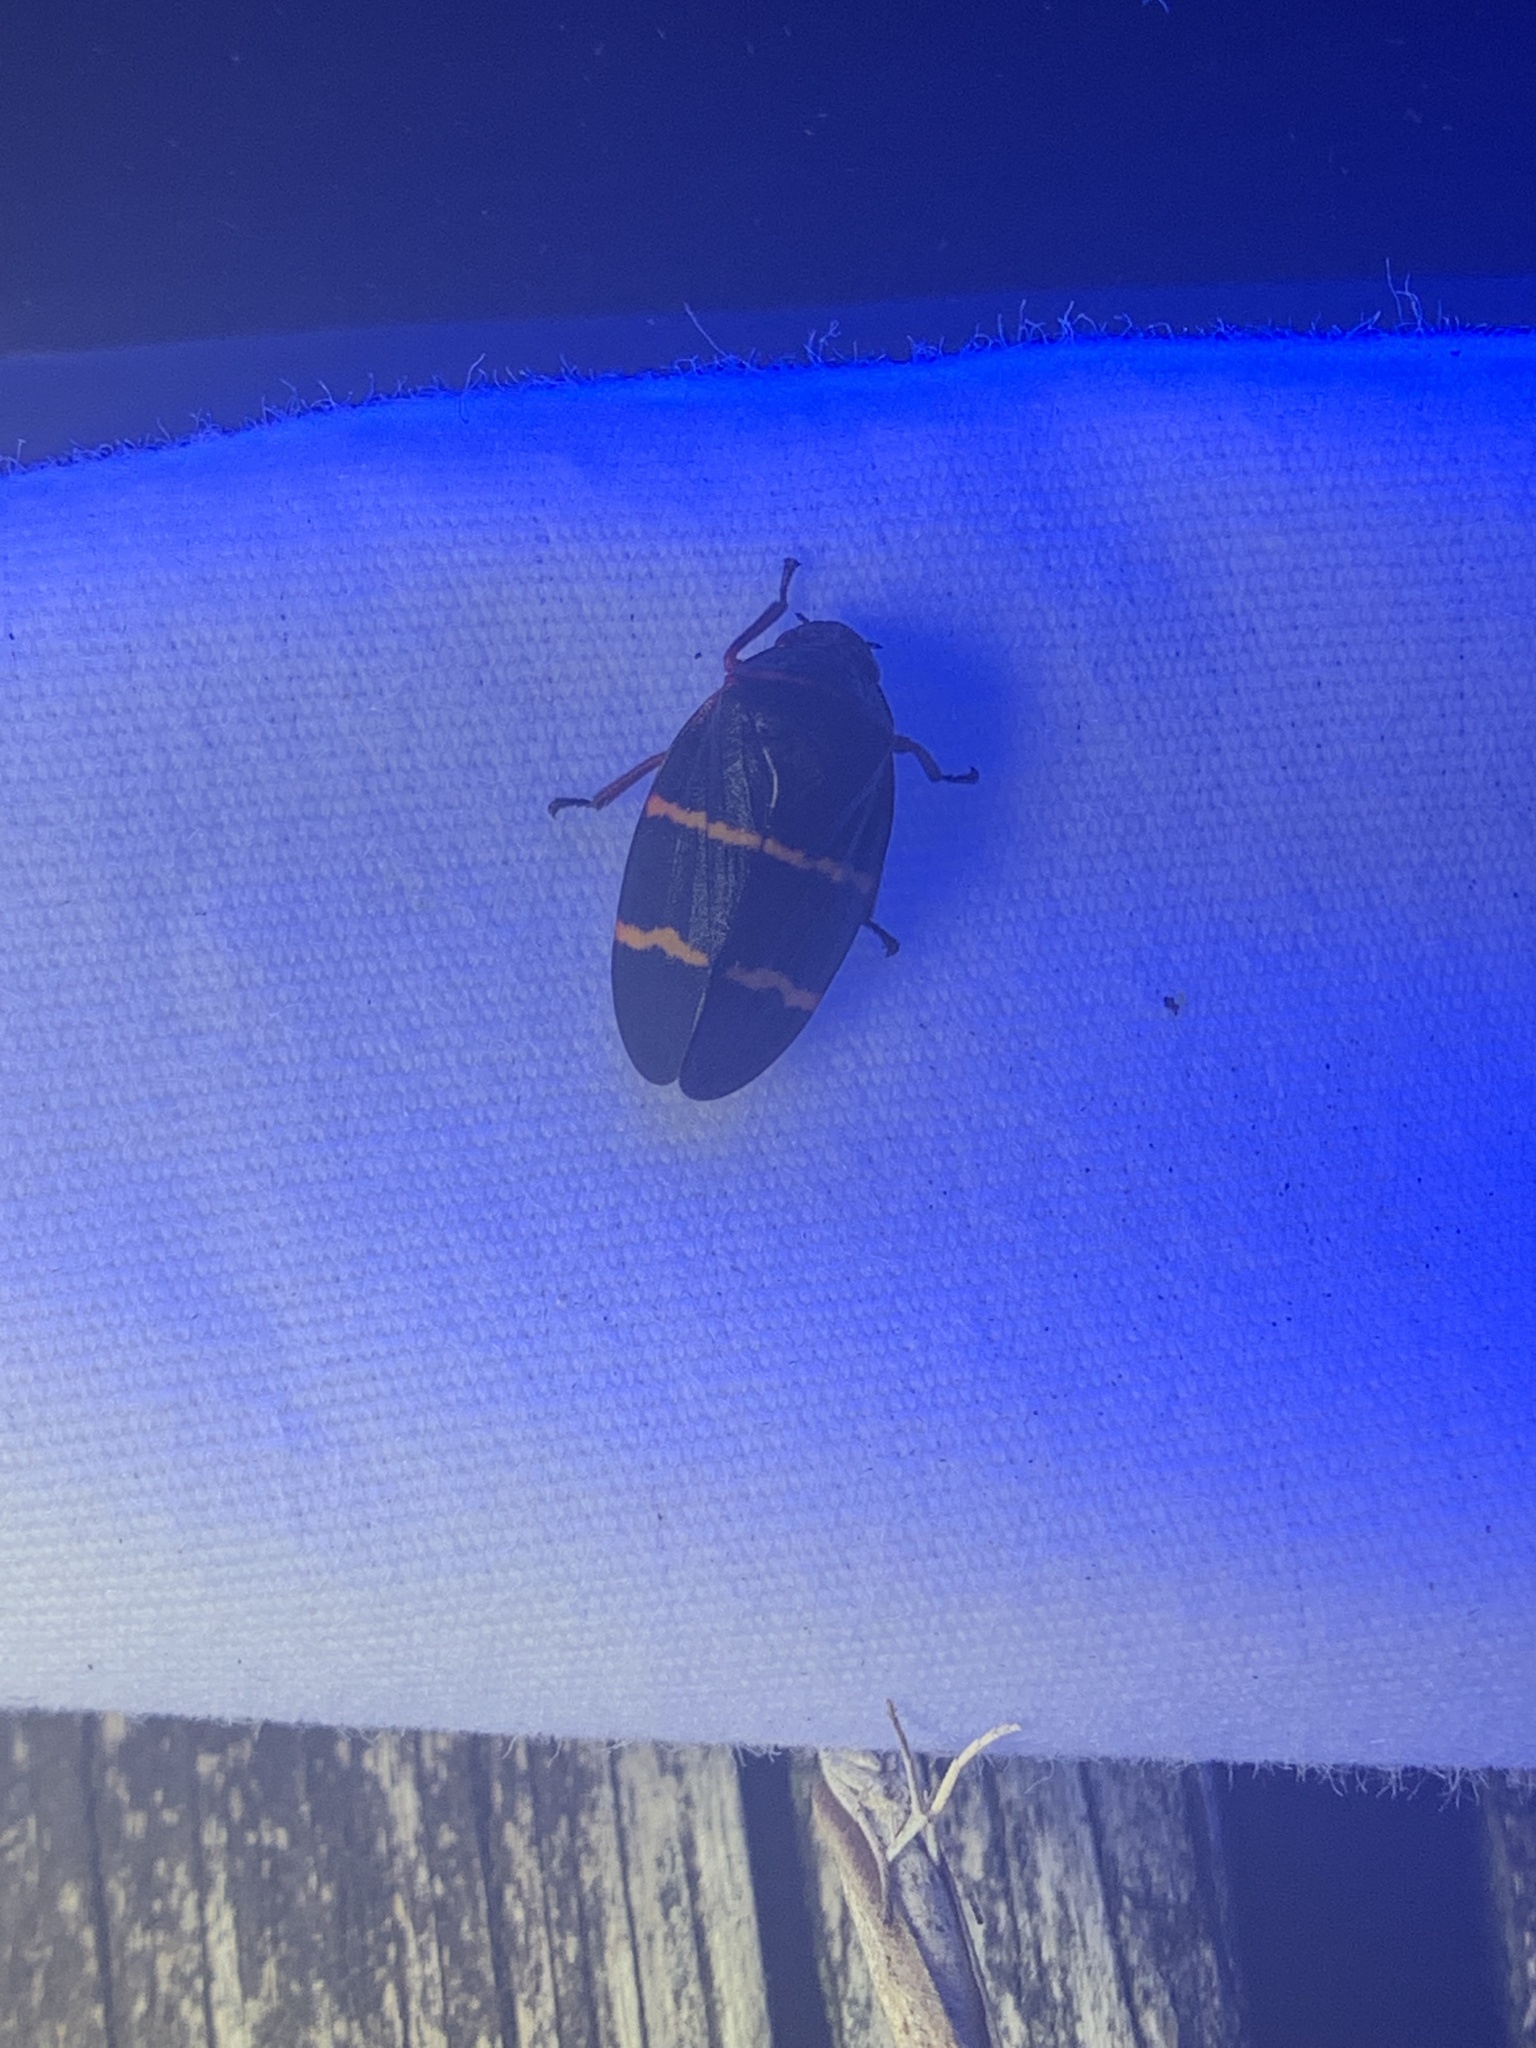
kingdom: Animalia
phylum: Arthropoda
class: Insecta
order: Hemiptera
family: Cercopidae
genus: Prosapia
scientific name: Prosapia bicincta
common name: Twolined spittlebug
